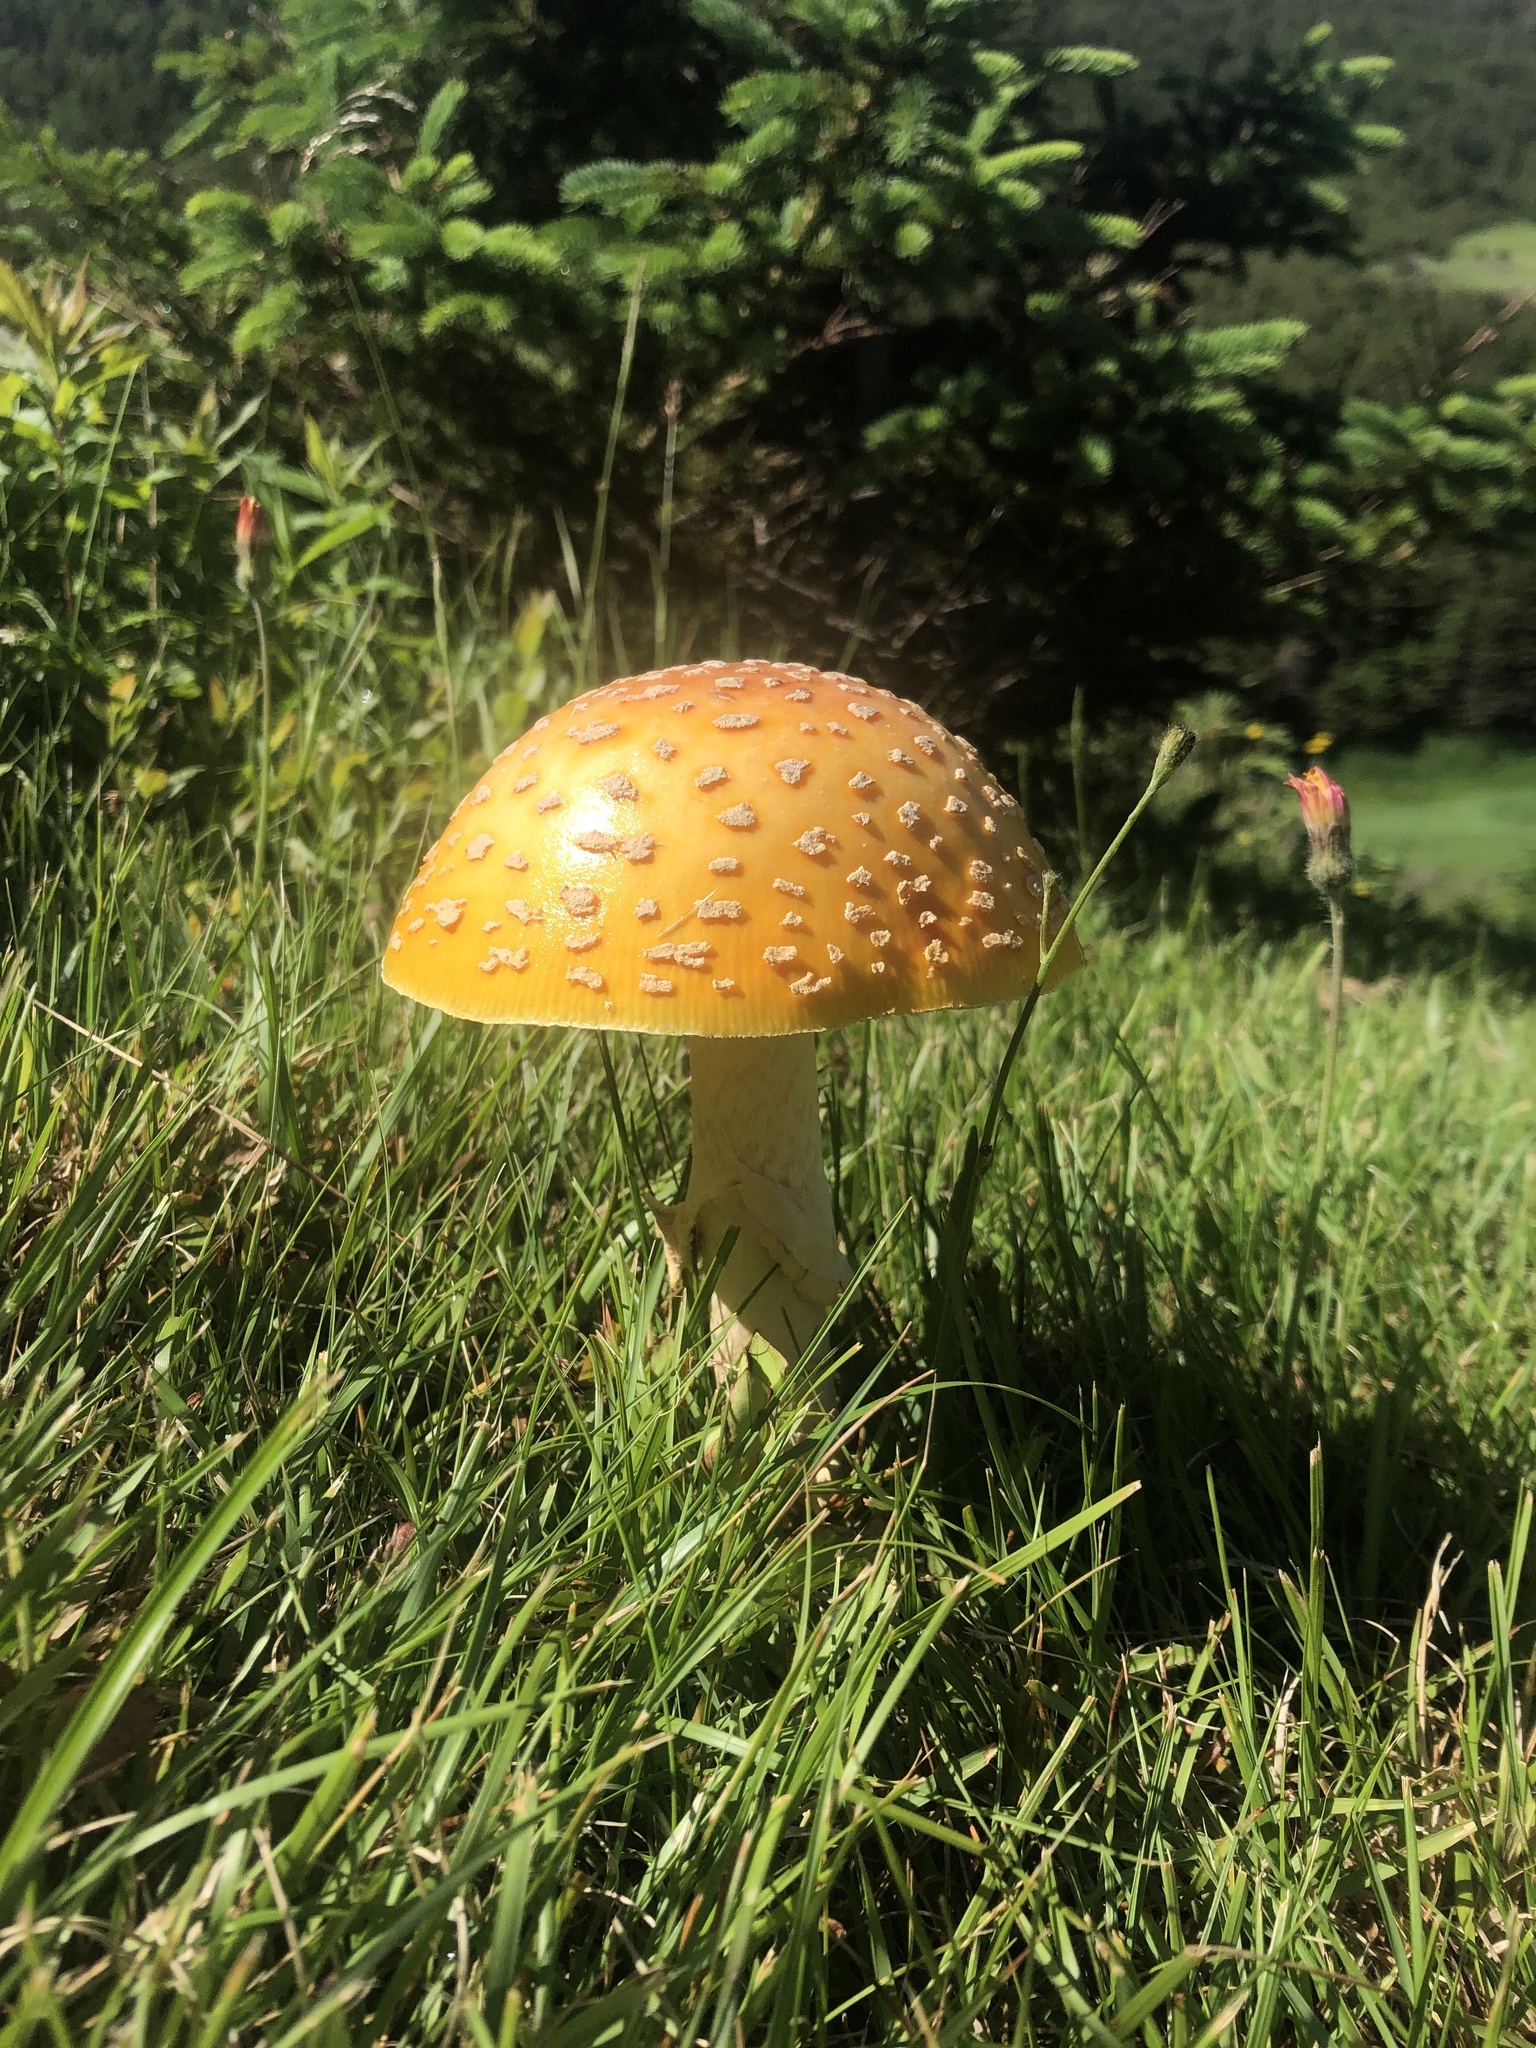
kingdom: Fungi
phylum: Basidiomycota
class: Agaricomycetes
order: Agaricales
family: Amanitaceae
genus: Amanita
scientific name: Amanita muscaria
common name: Fly agaric
